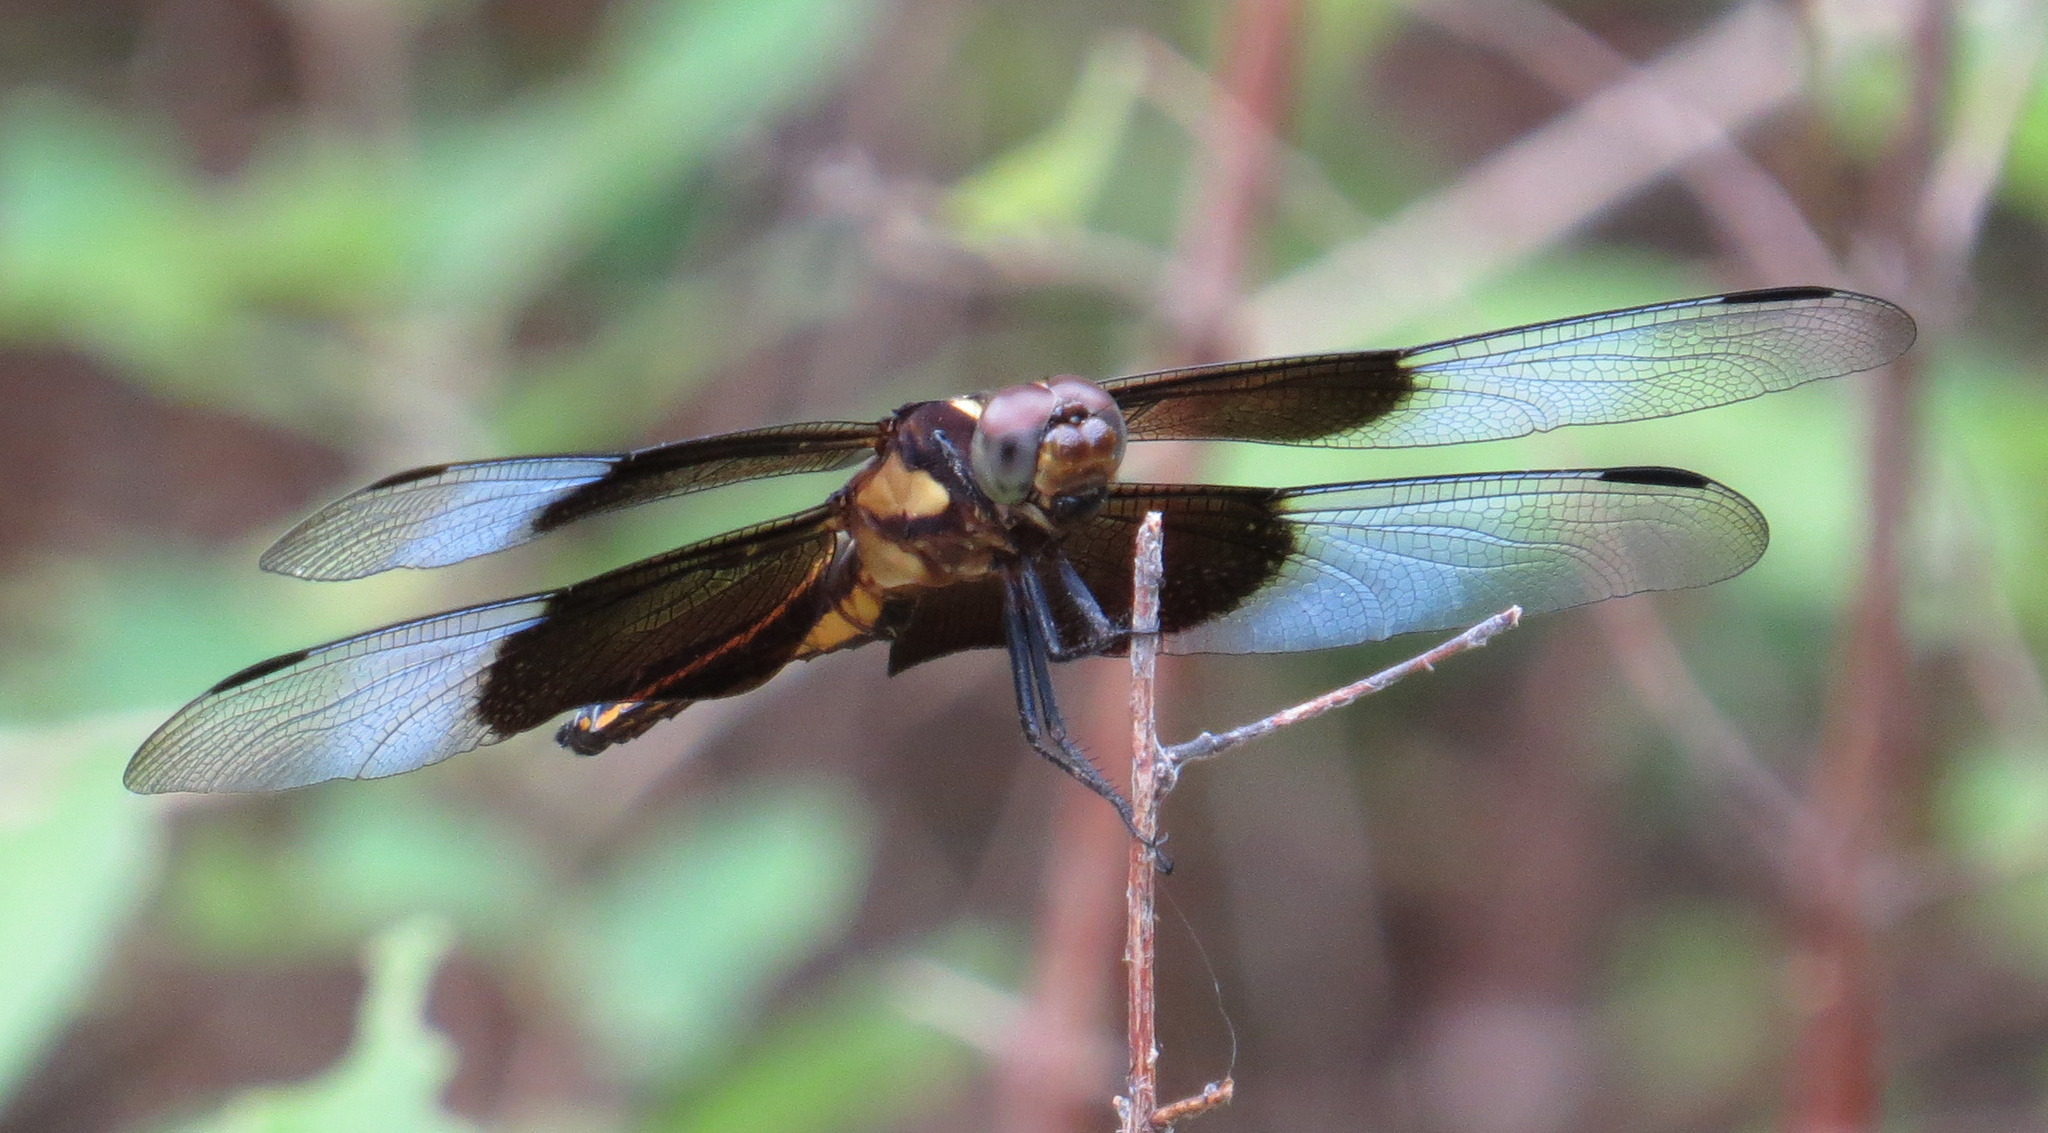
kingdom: Animalia
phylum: Arthropoda
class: Insecta
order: Odonata
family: Libellulidae
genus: Libellula
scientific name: Libellula luctuosa
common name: Widow skimmer
